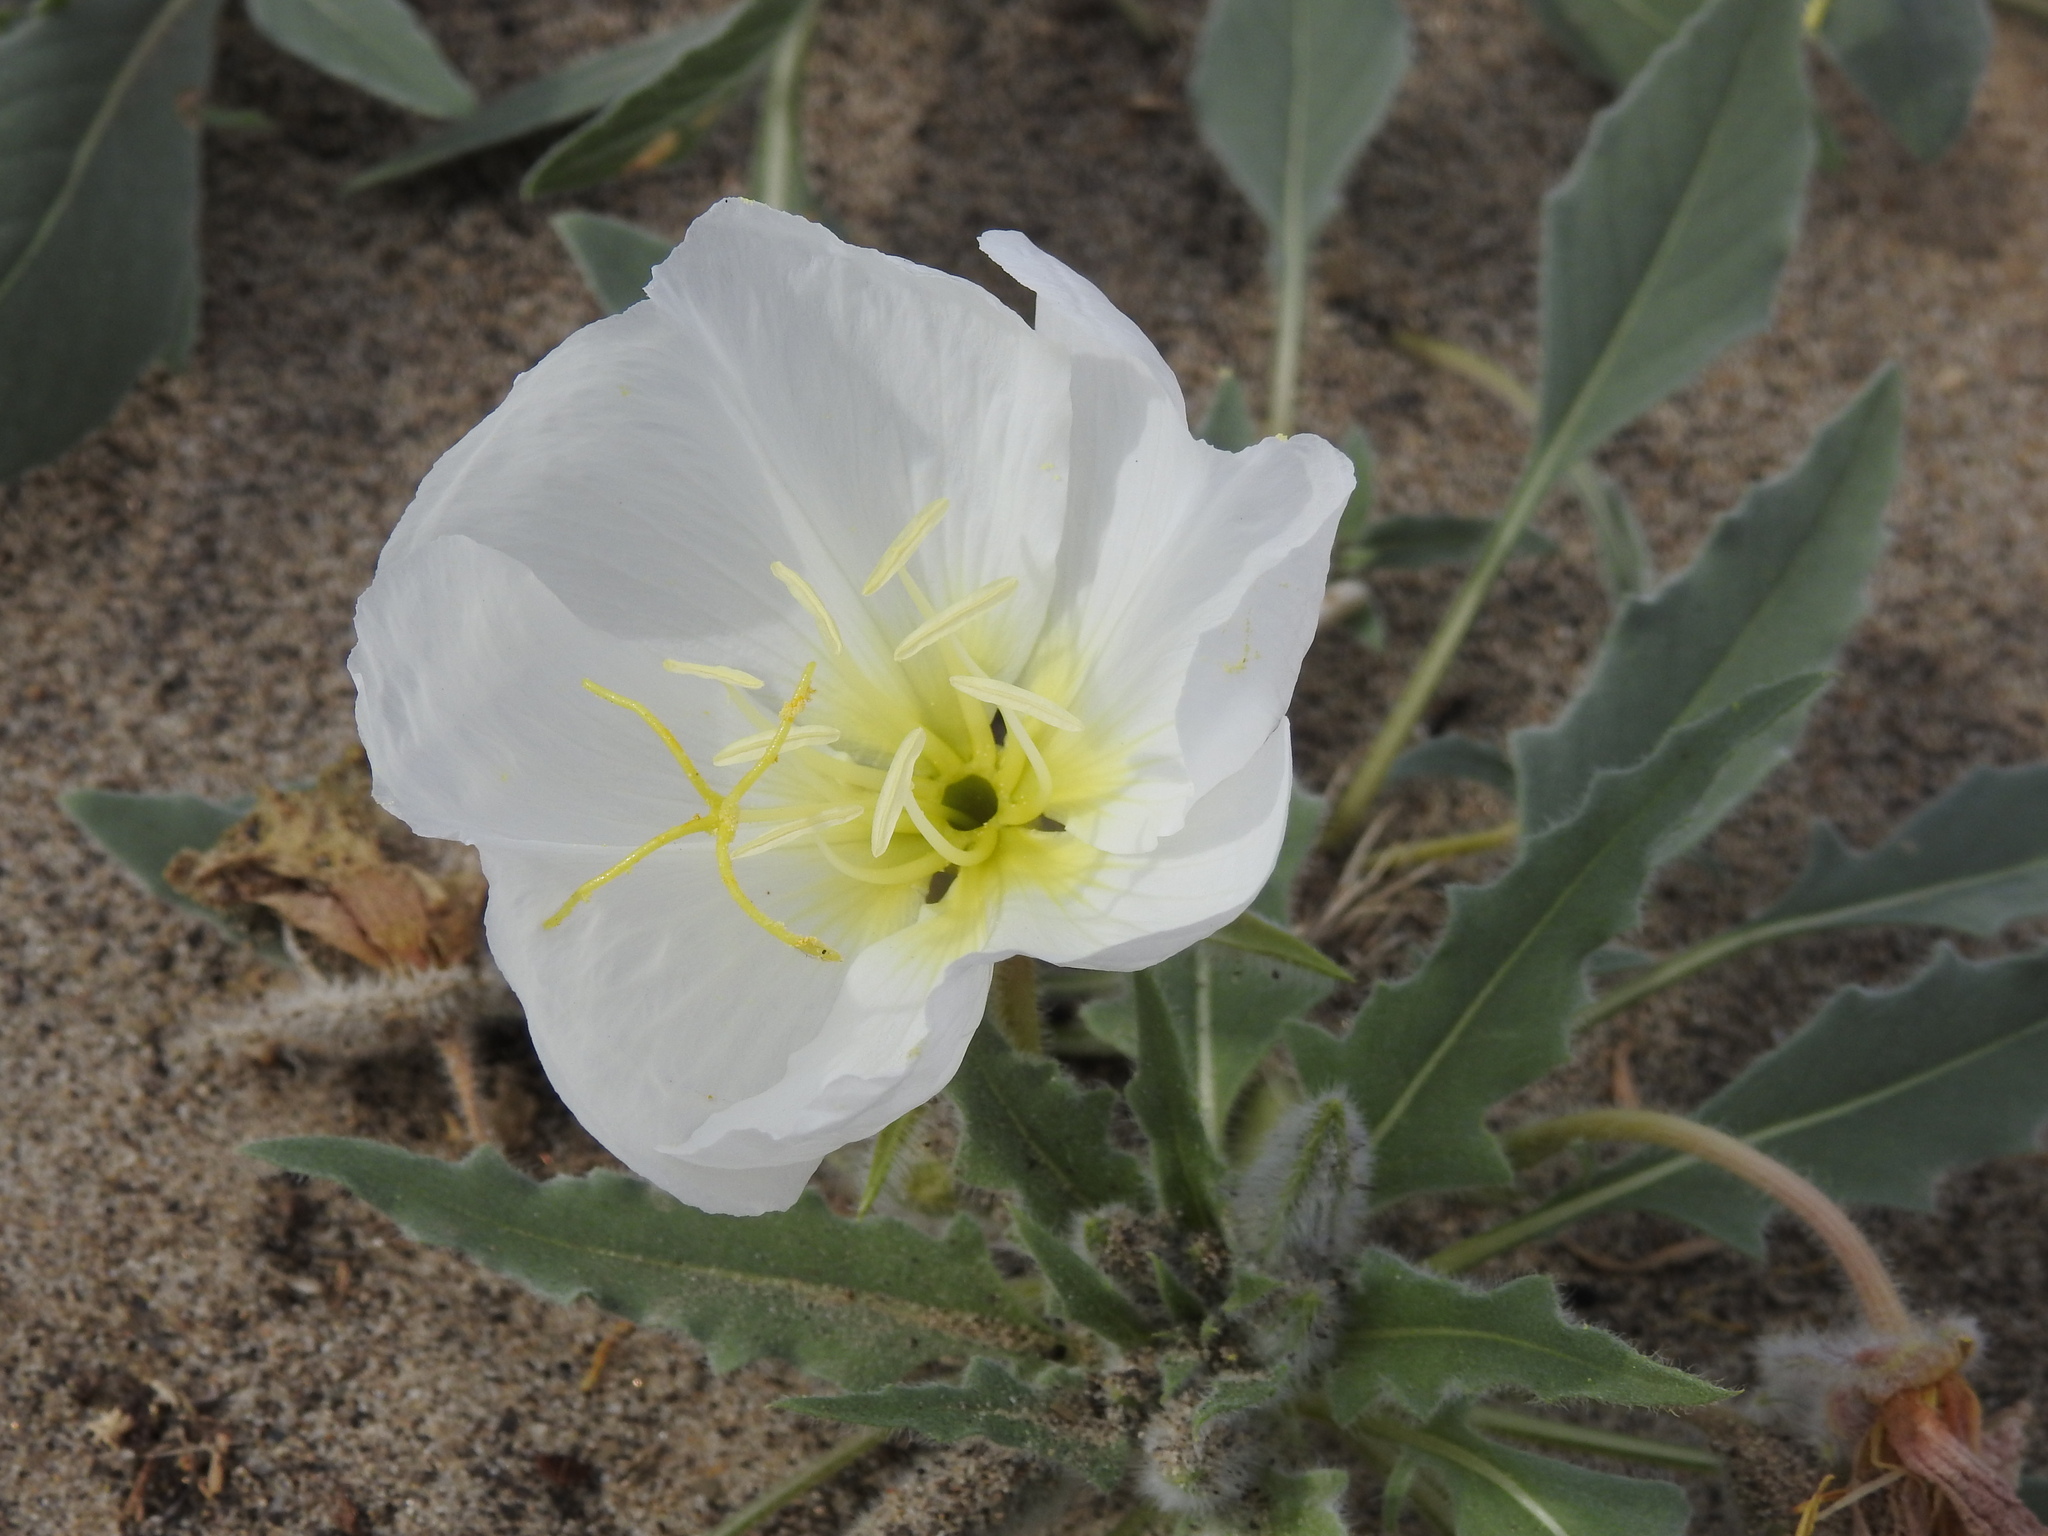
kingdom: Plantae
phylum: Tracheophyta
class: Magnoliopsida
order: Myrtales
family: Onagraceae
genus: Oenothera
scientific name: Oenothera deltoides
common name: Basket evening-primrose
